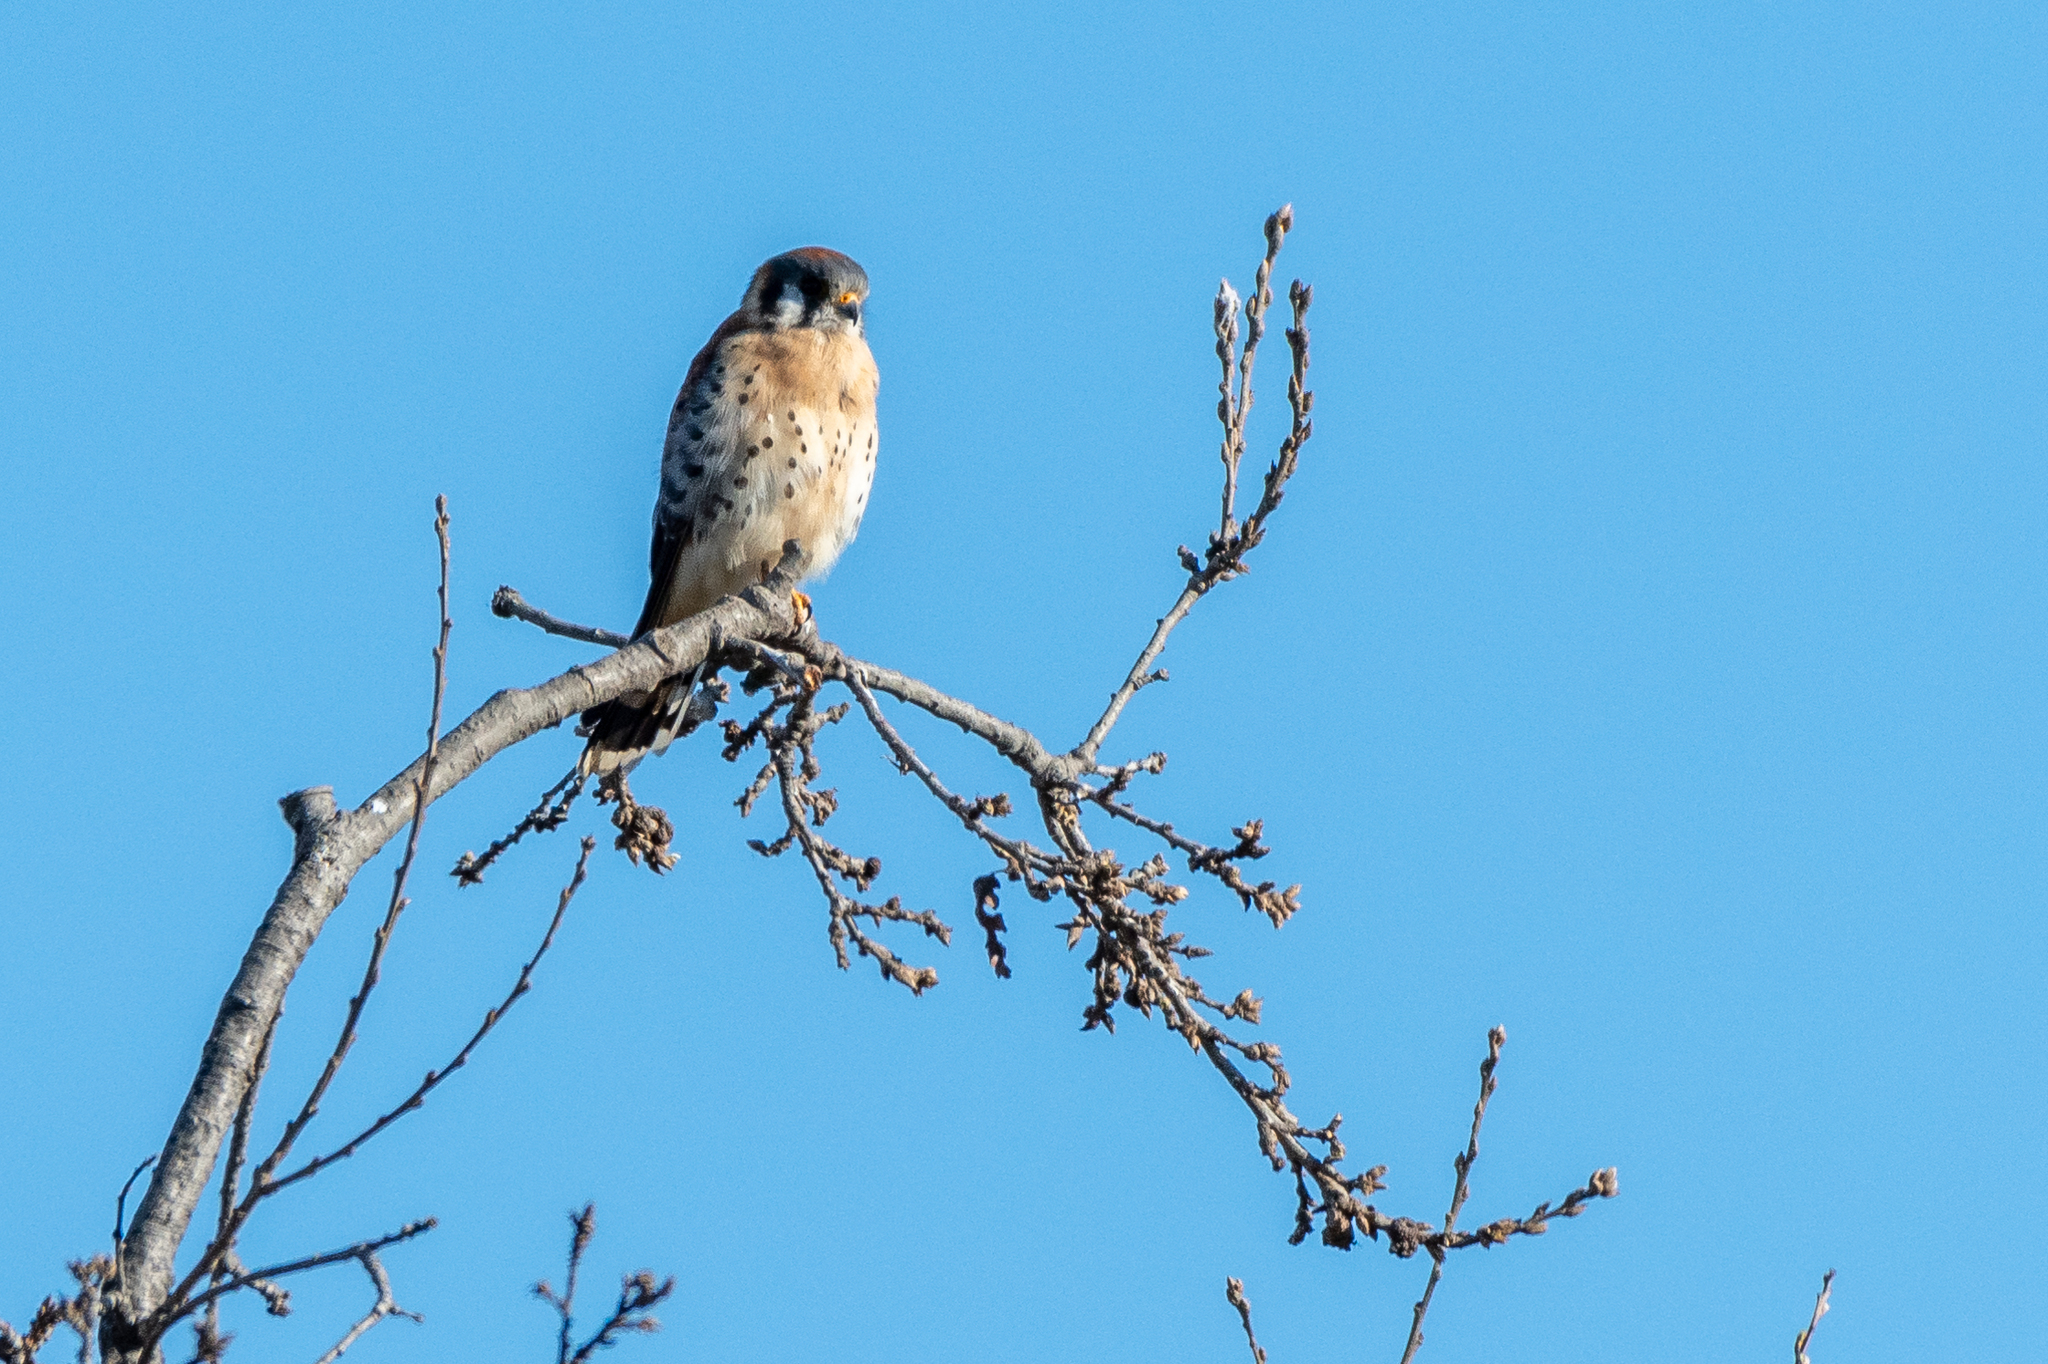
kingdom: Animalia
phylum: Chordata
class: Aves
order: Falconiformes
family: Falconidae
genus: Falco
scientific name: Falco sparverius
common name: American kestrel
